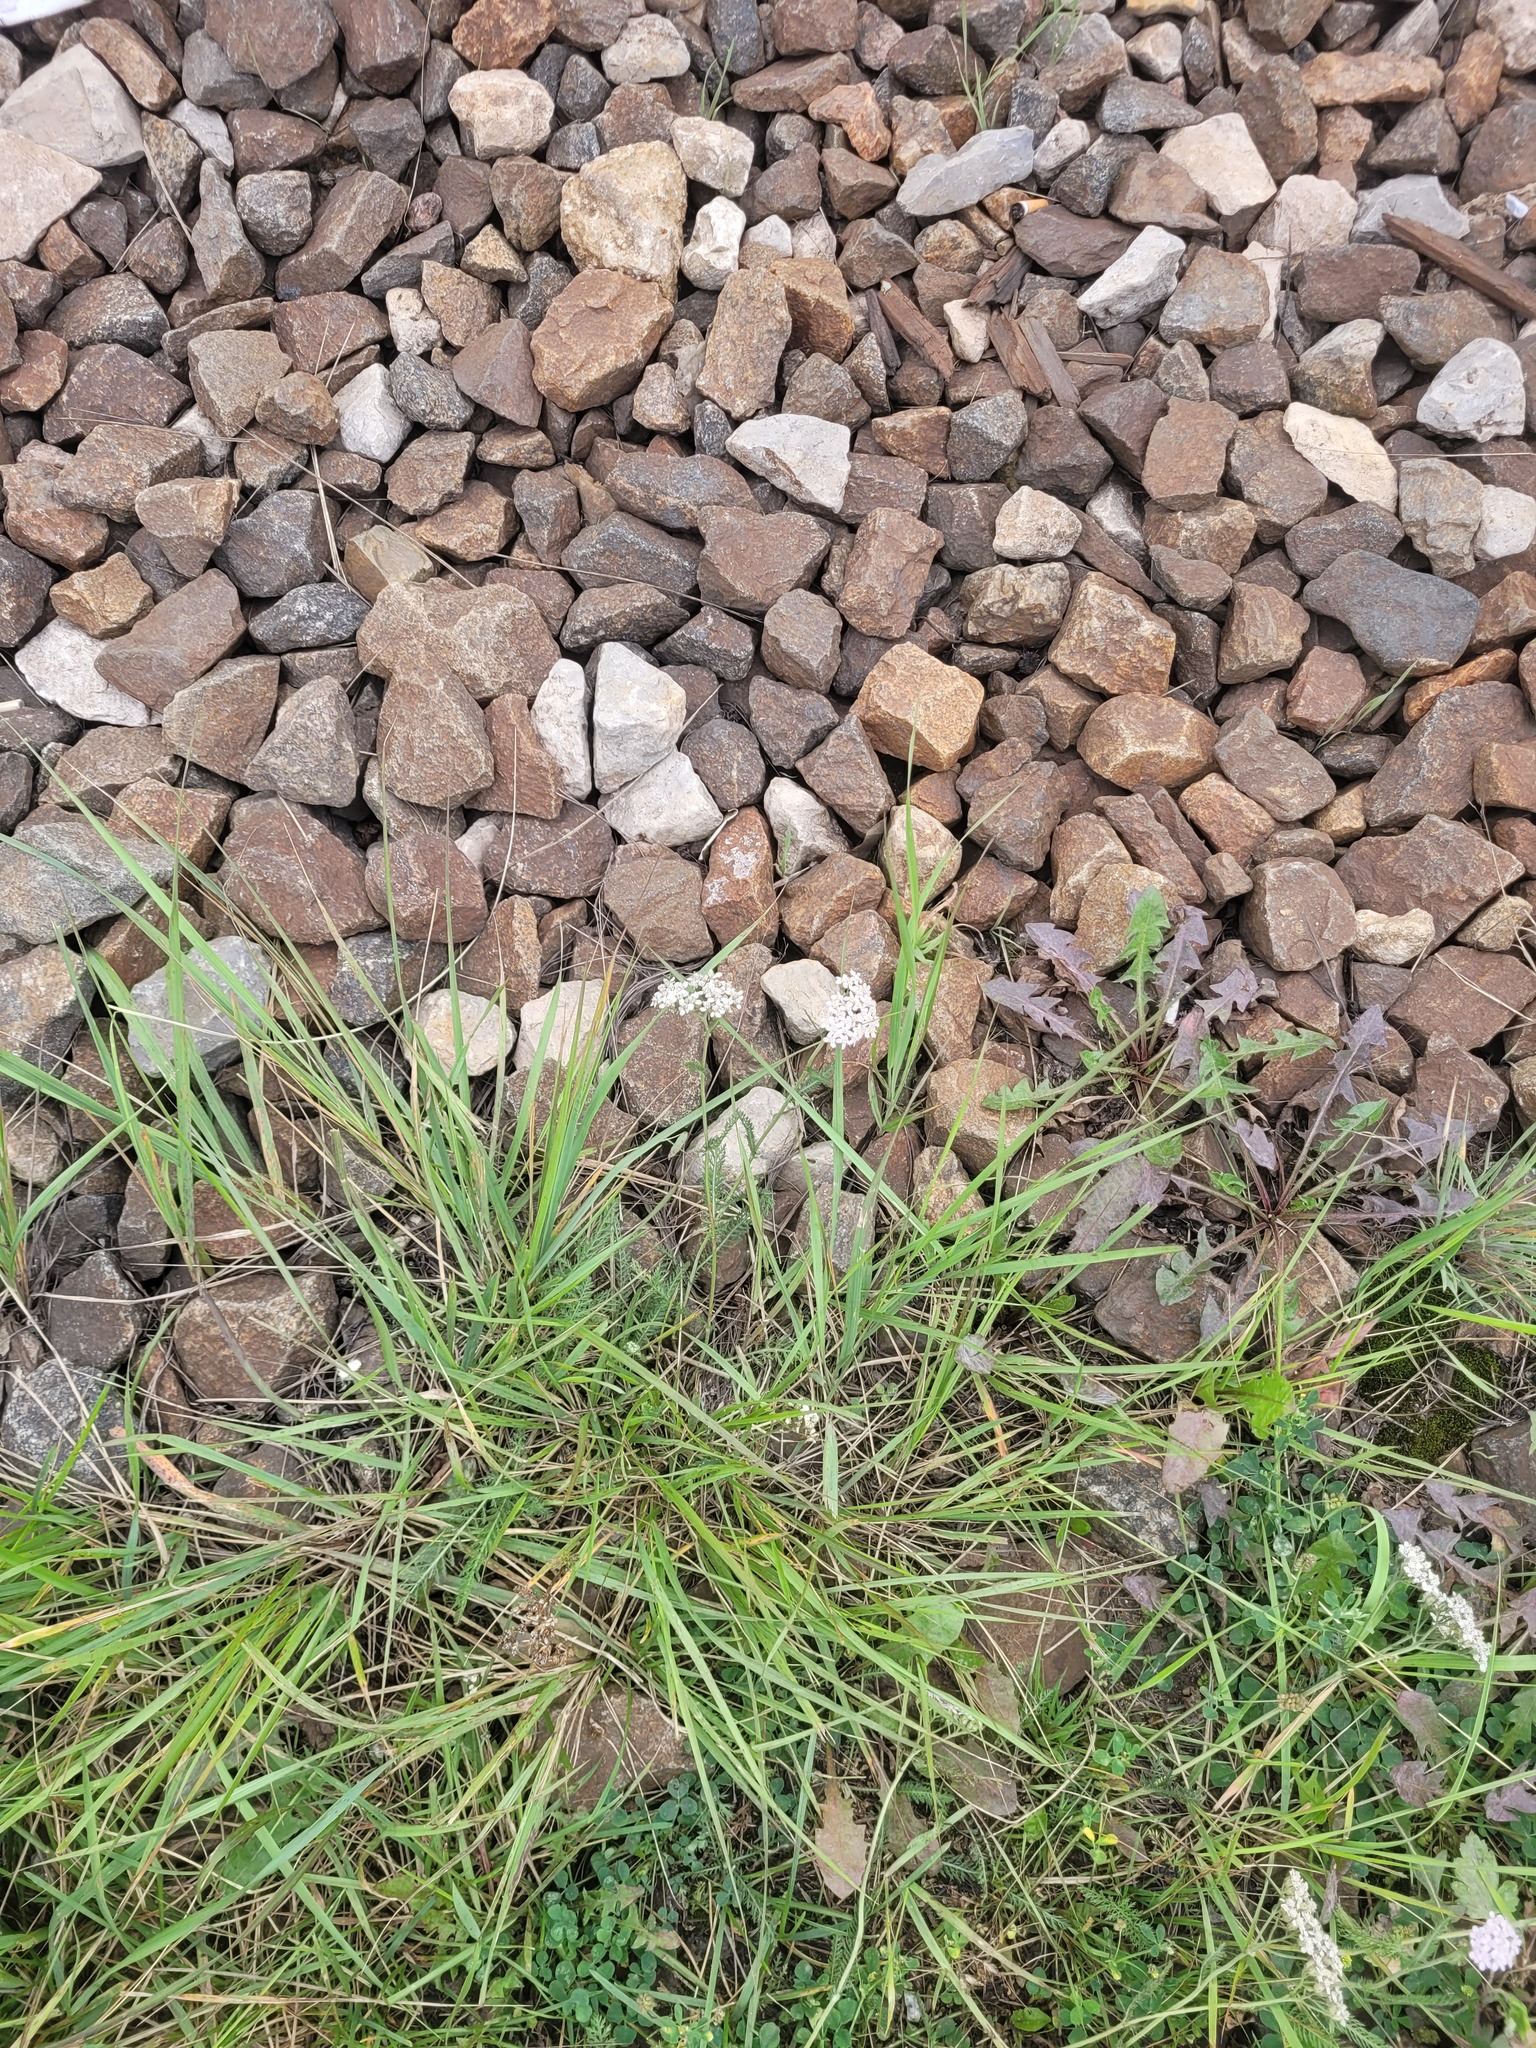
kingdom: Plantae
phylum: Tracheophyta
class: Magnoliopsida
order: Asterales
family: Asteraceae
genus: Achillea
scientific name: Achillea millefolium
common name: Yarrow
